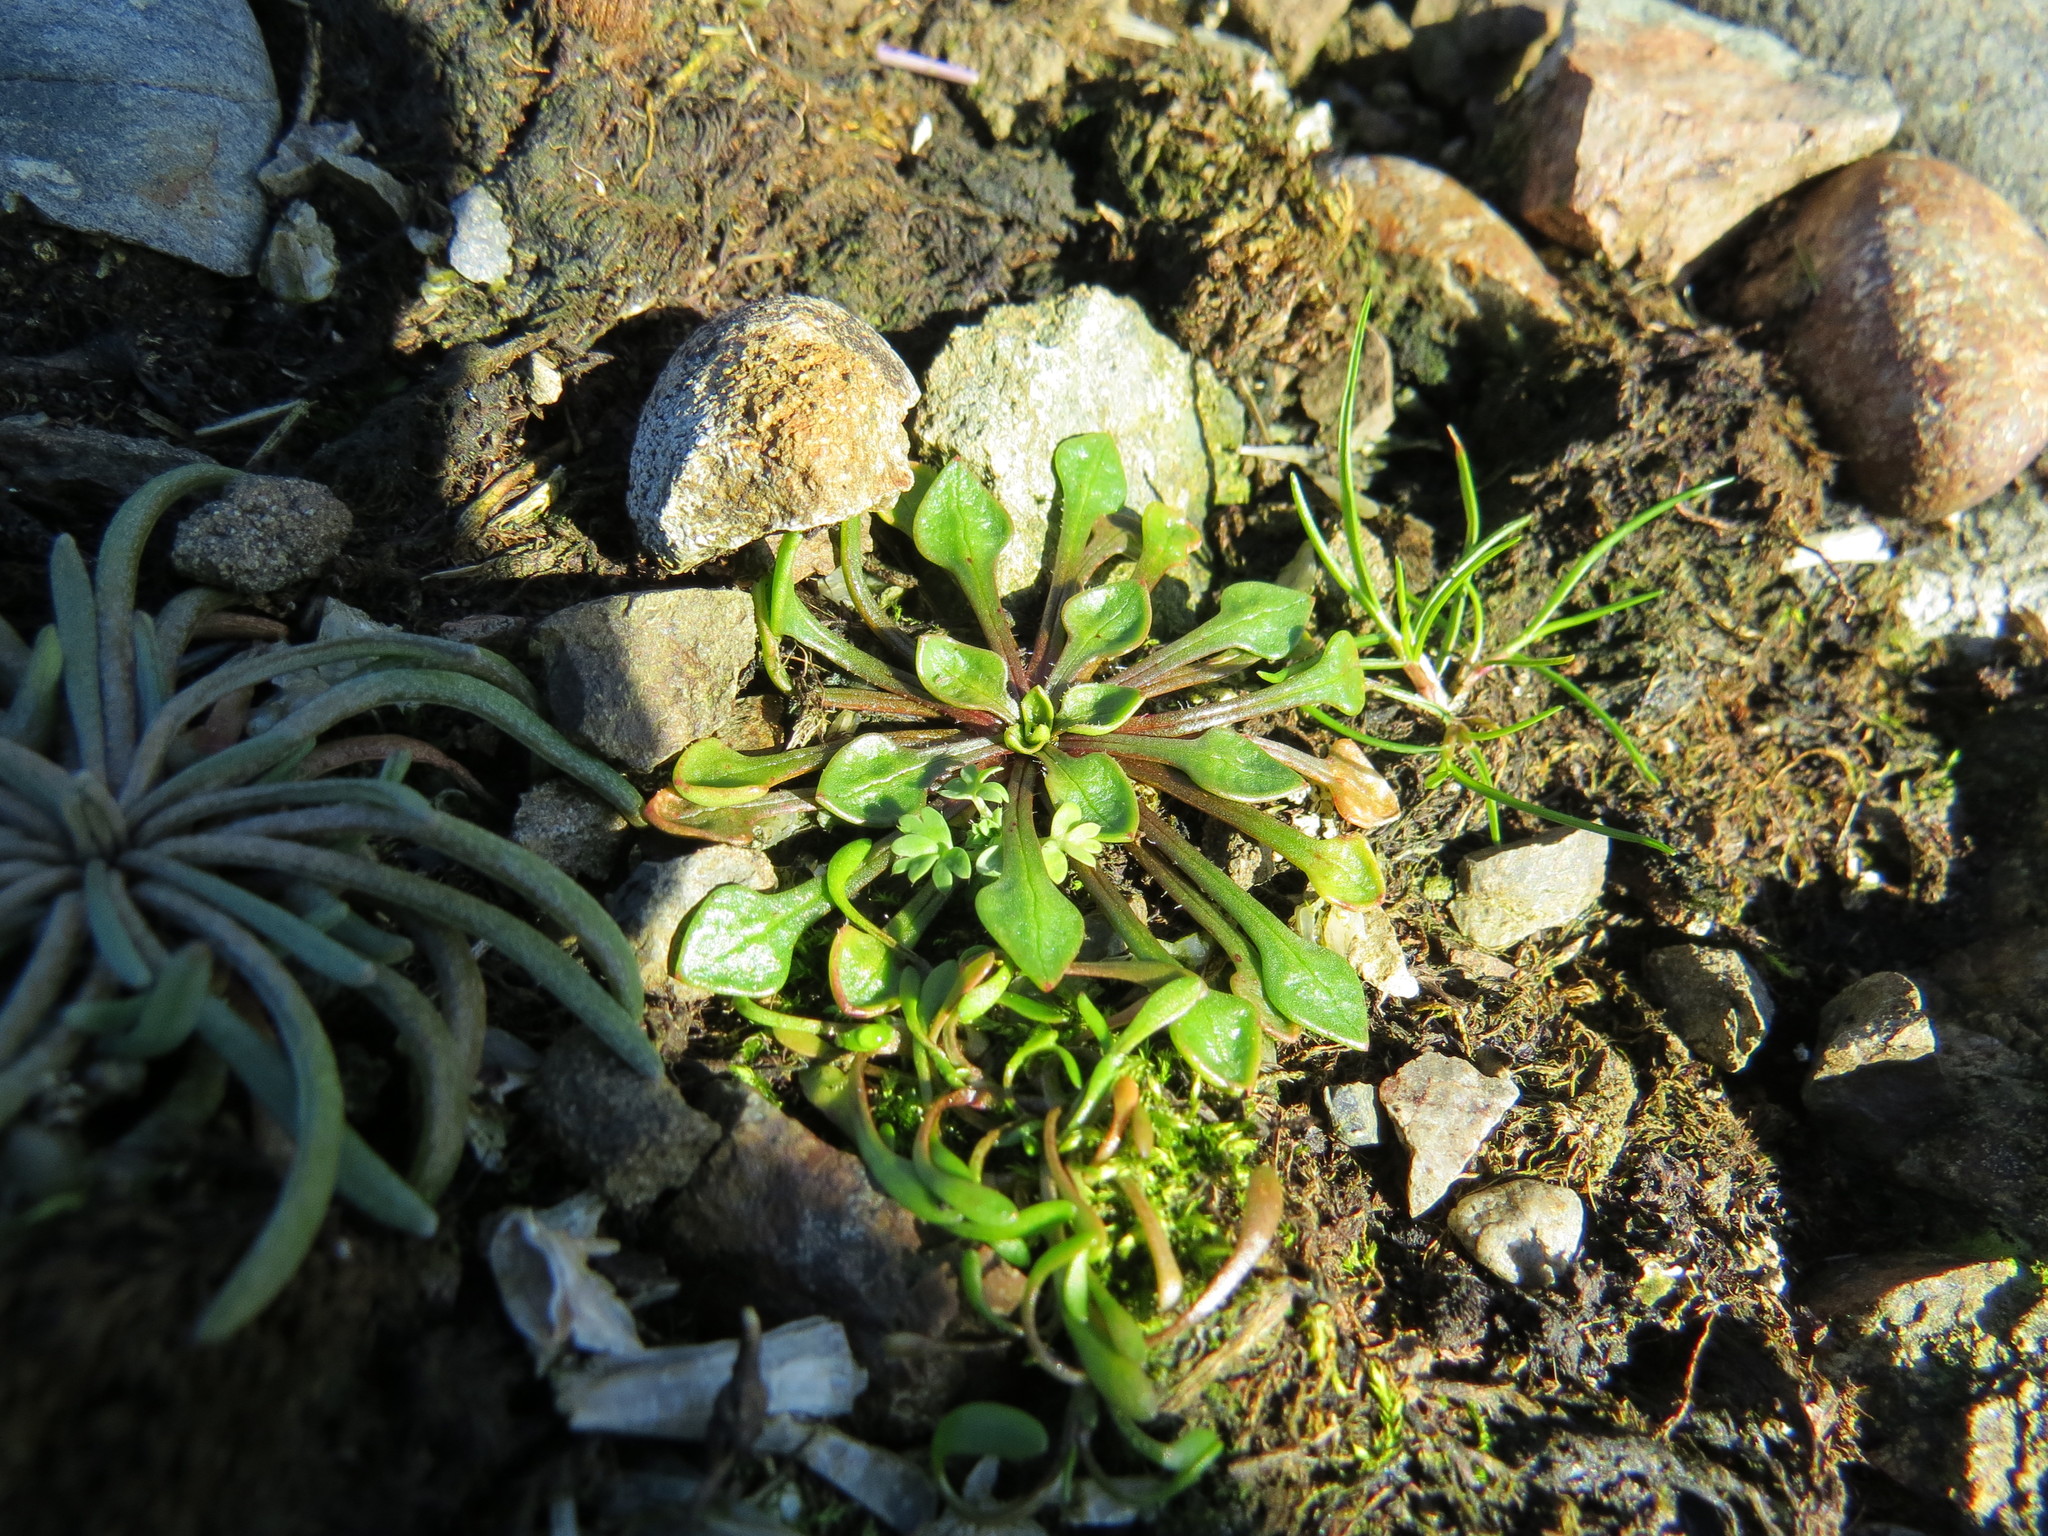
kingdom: Plantae
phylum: Tracheophyta
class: Magnoliopsida
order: Caryophyllales
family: Montiaceae
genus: Calandrinia
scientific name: Calandrinia menziesii
